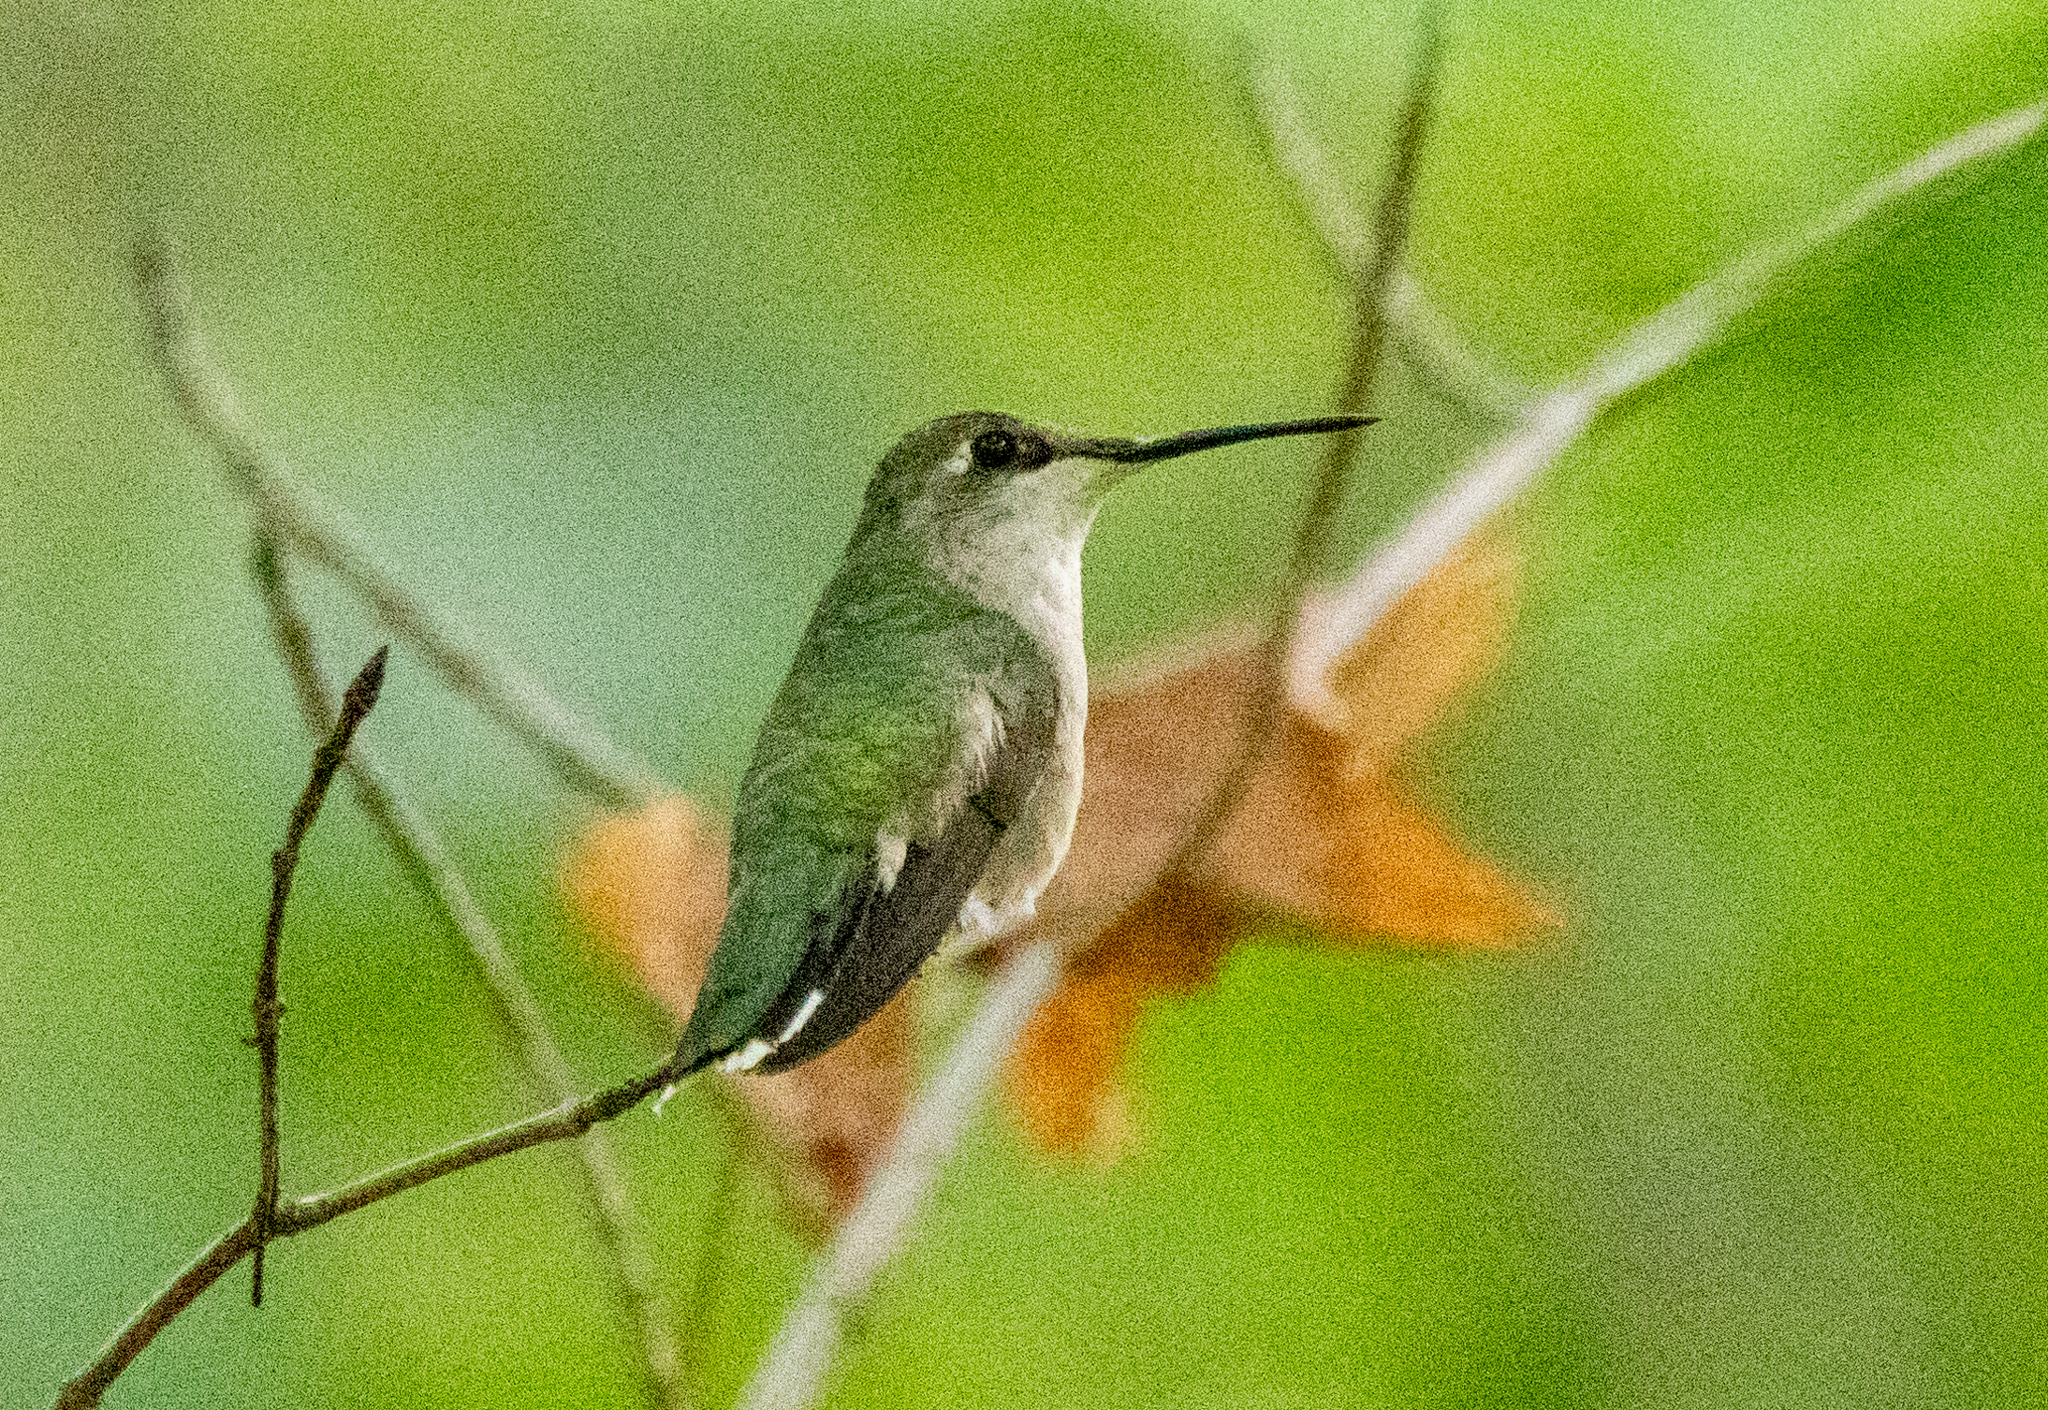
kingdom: Animalia
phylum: Chordata
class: Aves
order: Apodiformes
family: Trochilidae
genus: Archilochus
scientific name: Archilochus colubris
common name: Ruby-throated hummingbird
